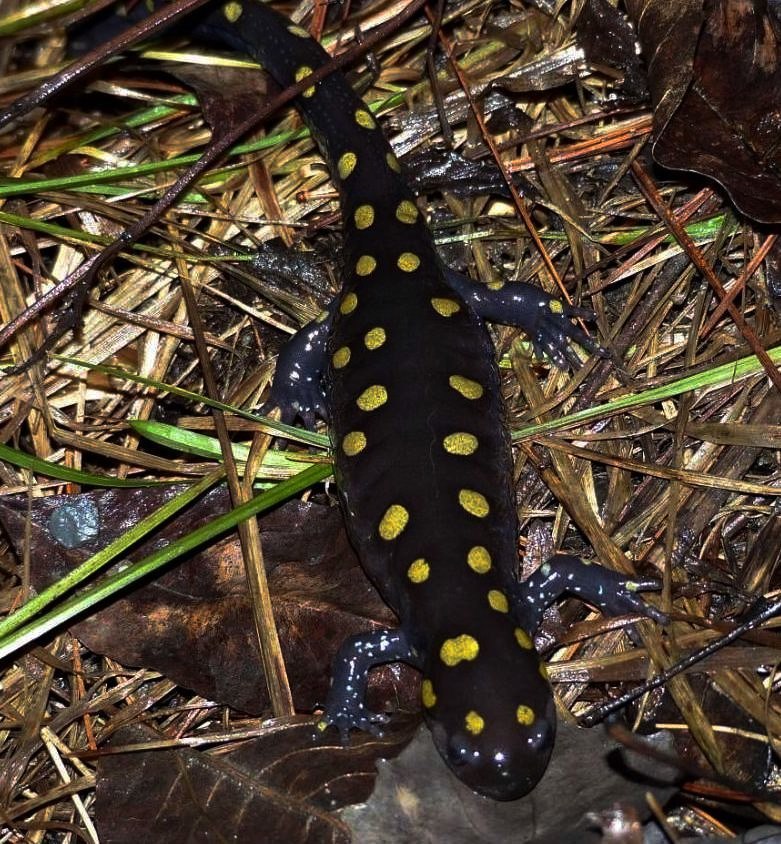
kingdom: Animalia
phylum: Chordata
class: Amphibia
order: Caudata
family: Ambystomatidae
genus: Ambystoma
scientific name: Ambystoma maculatum
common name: Spotted salamander
